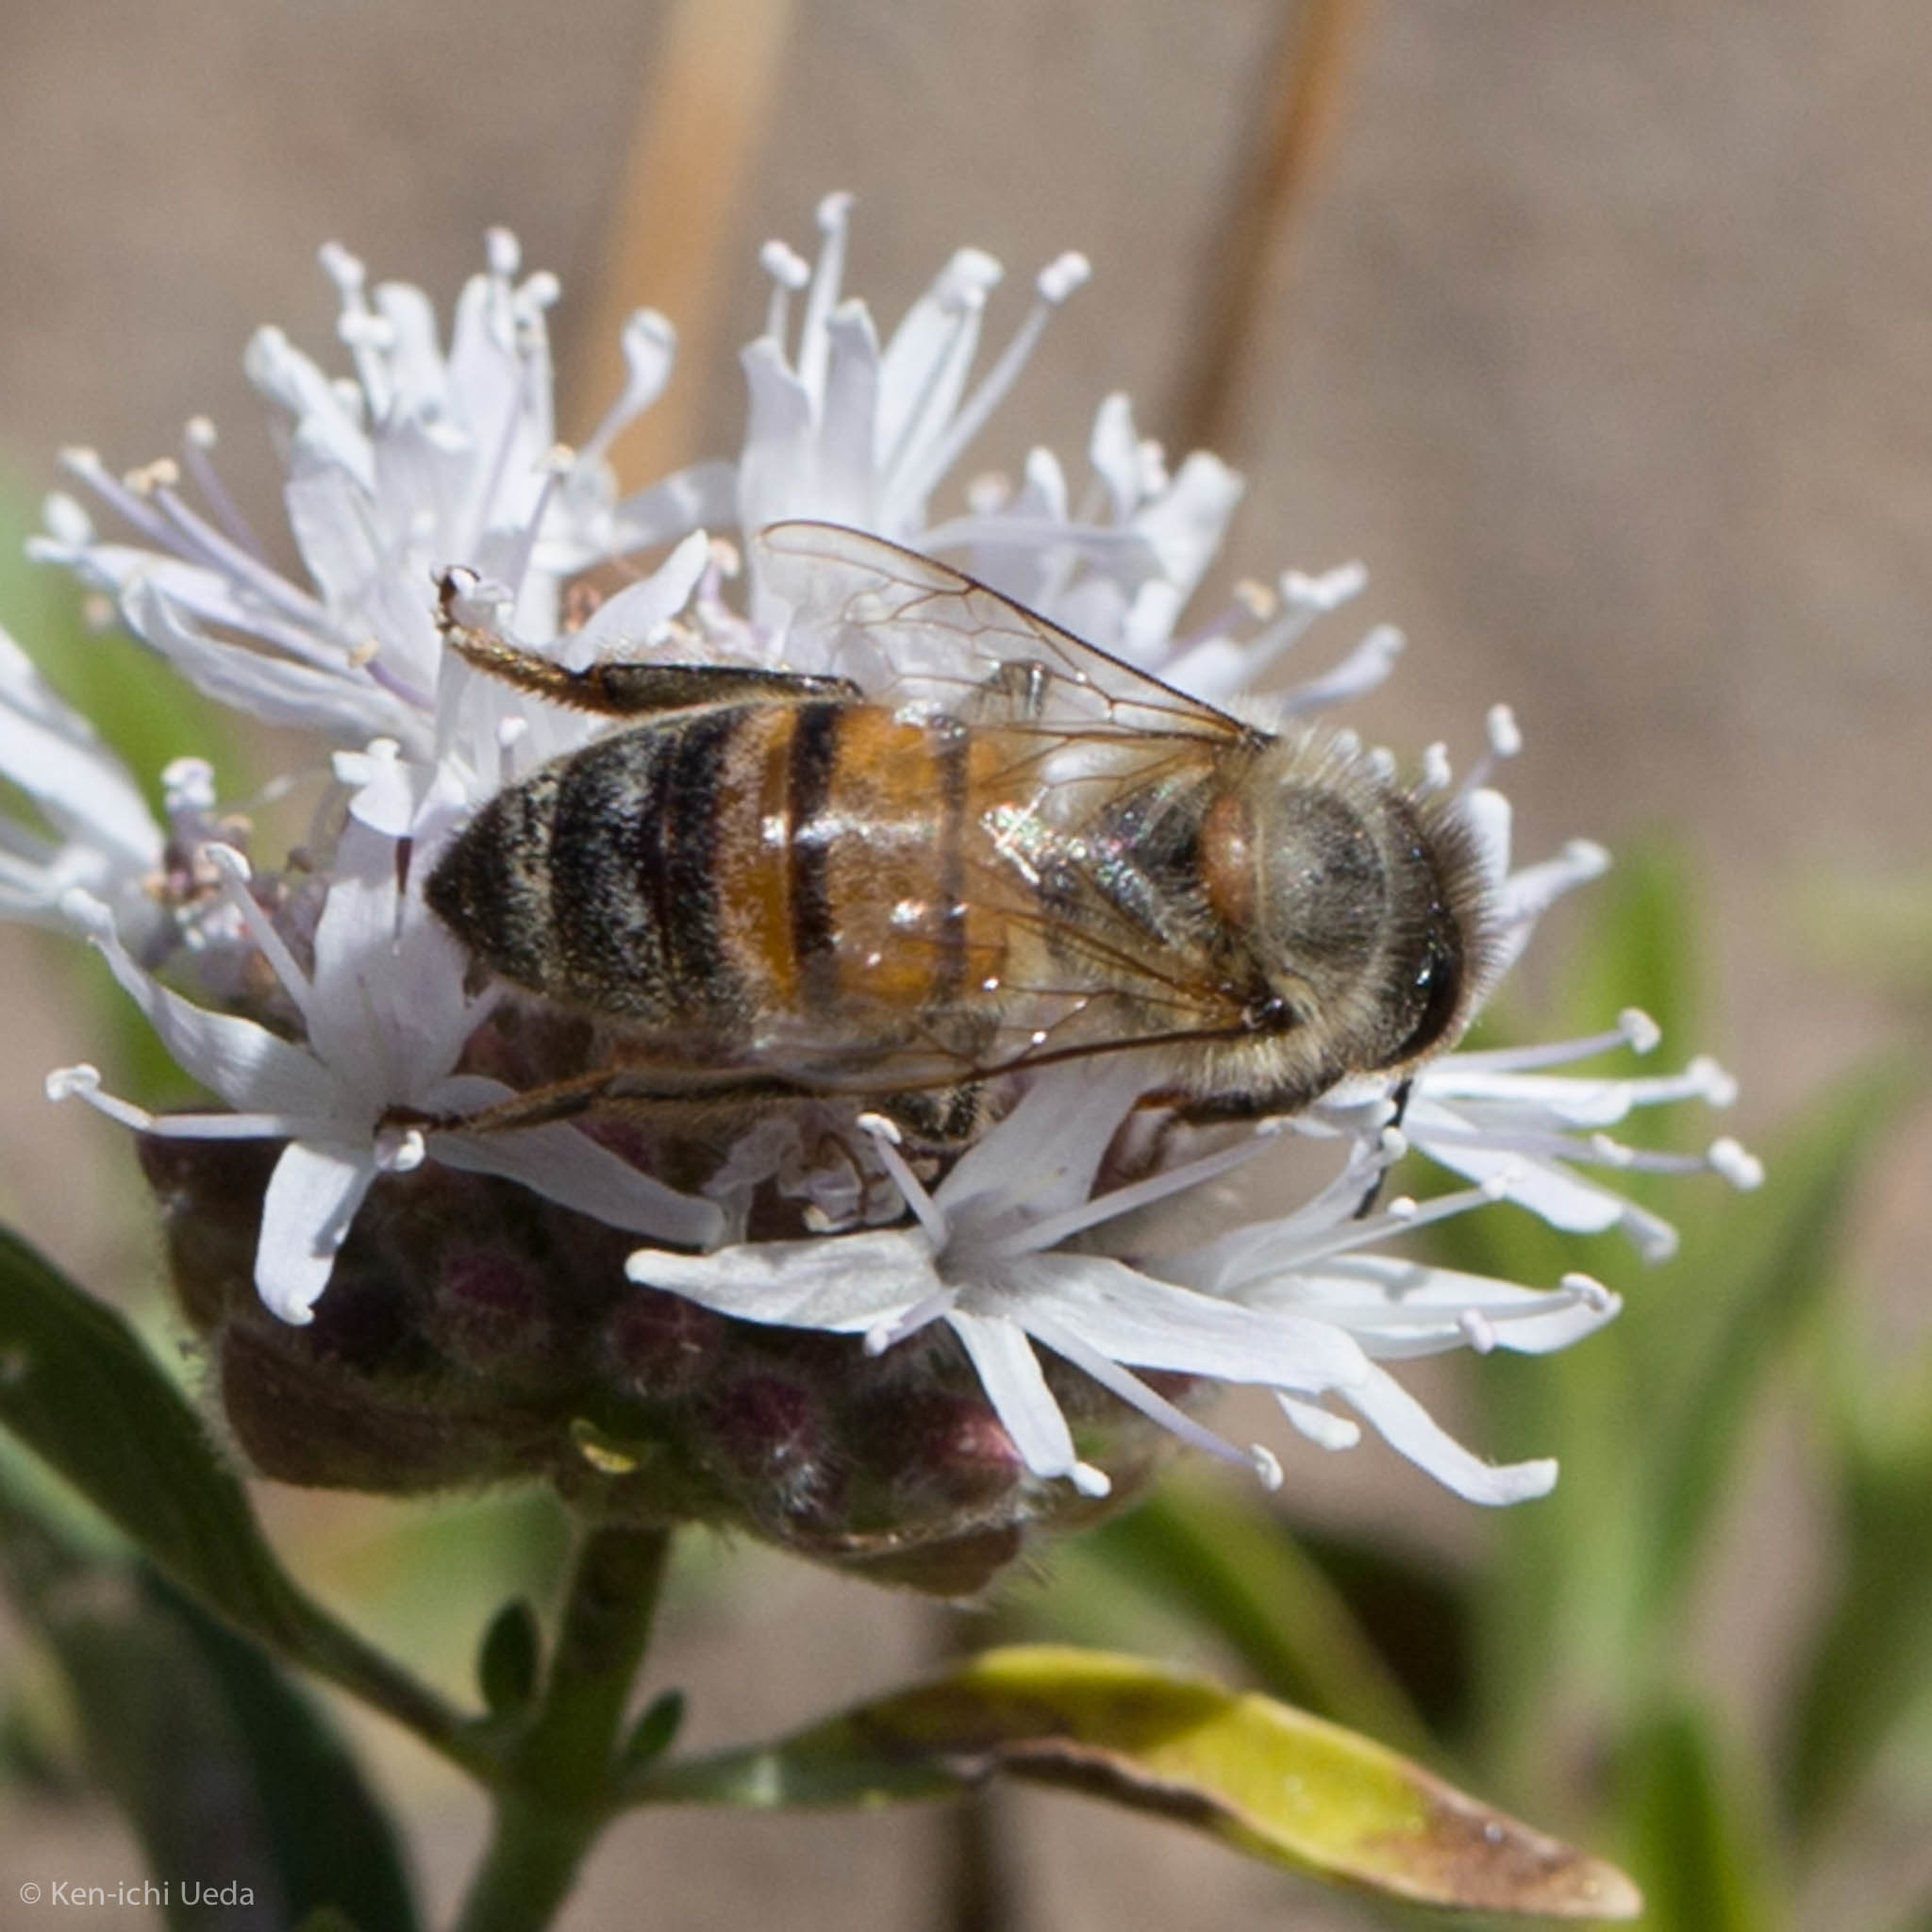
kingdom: Animalia
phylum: Arthropoda
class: Insecta
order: Hymenoptera
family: Apidae
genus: Apis
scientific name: Apis mellifera
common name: Honey bee
